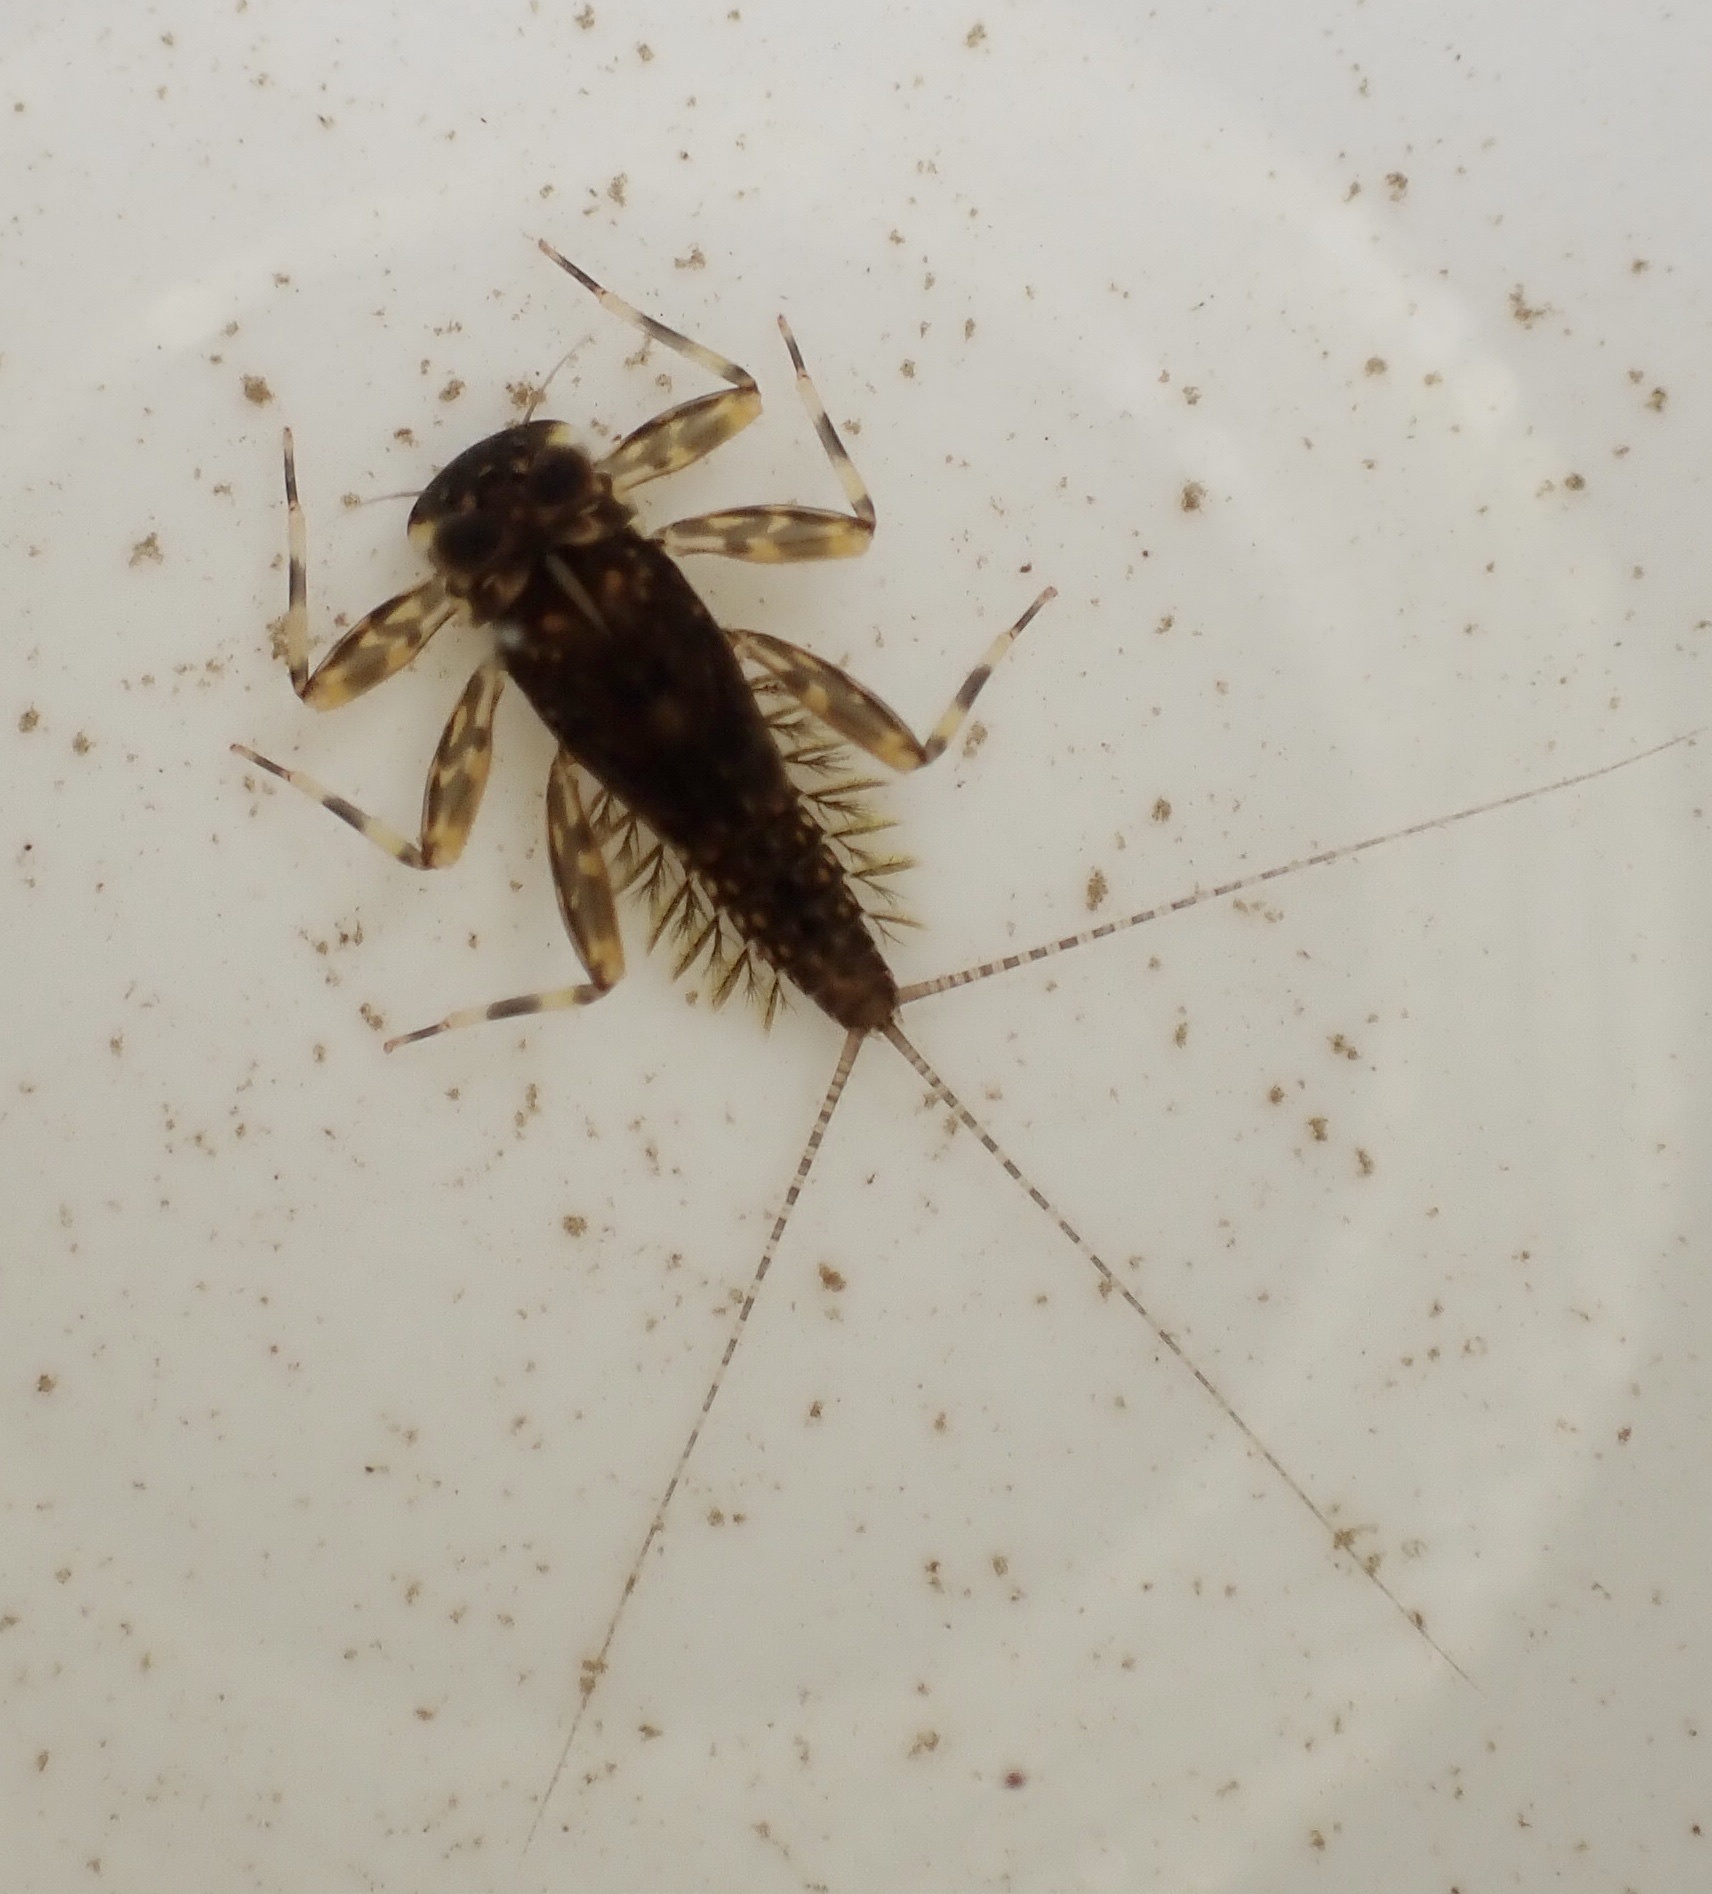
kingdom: Animalia
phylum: Arthropoda
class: Insecta
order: Ephemeroptera
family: Heptageniidae
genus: Heptagenia
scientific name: Heptagenia sulphurea
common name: Yellow may dun
